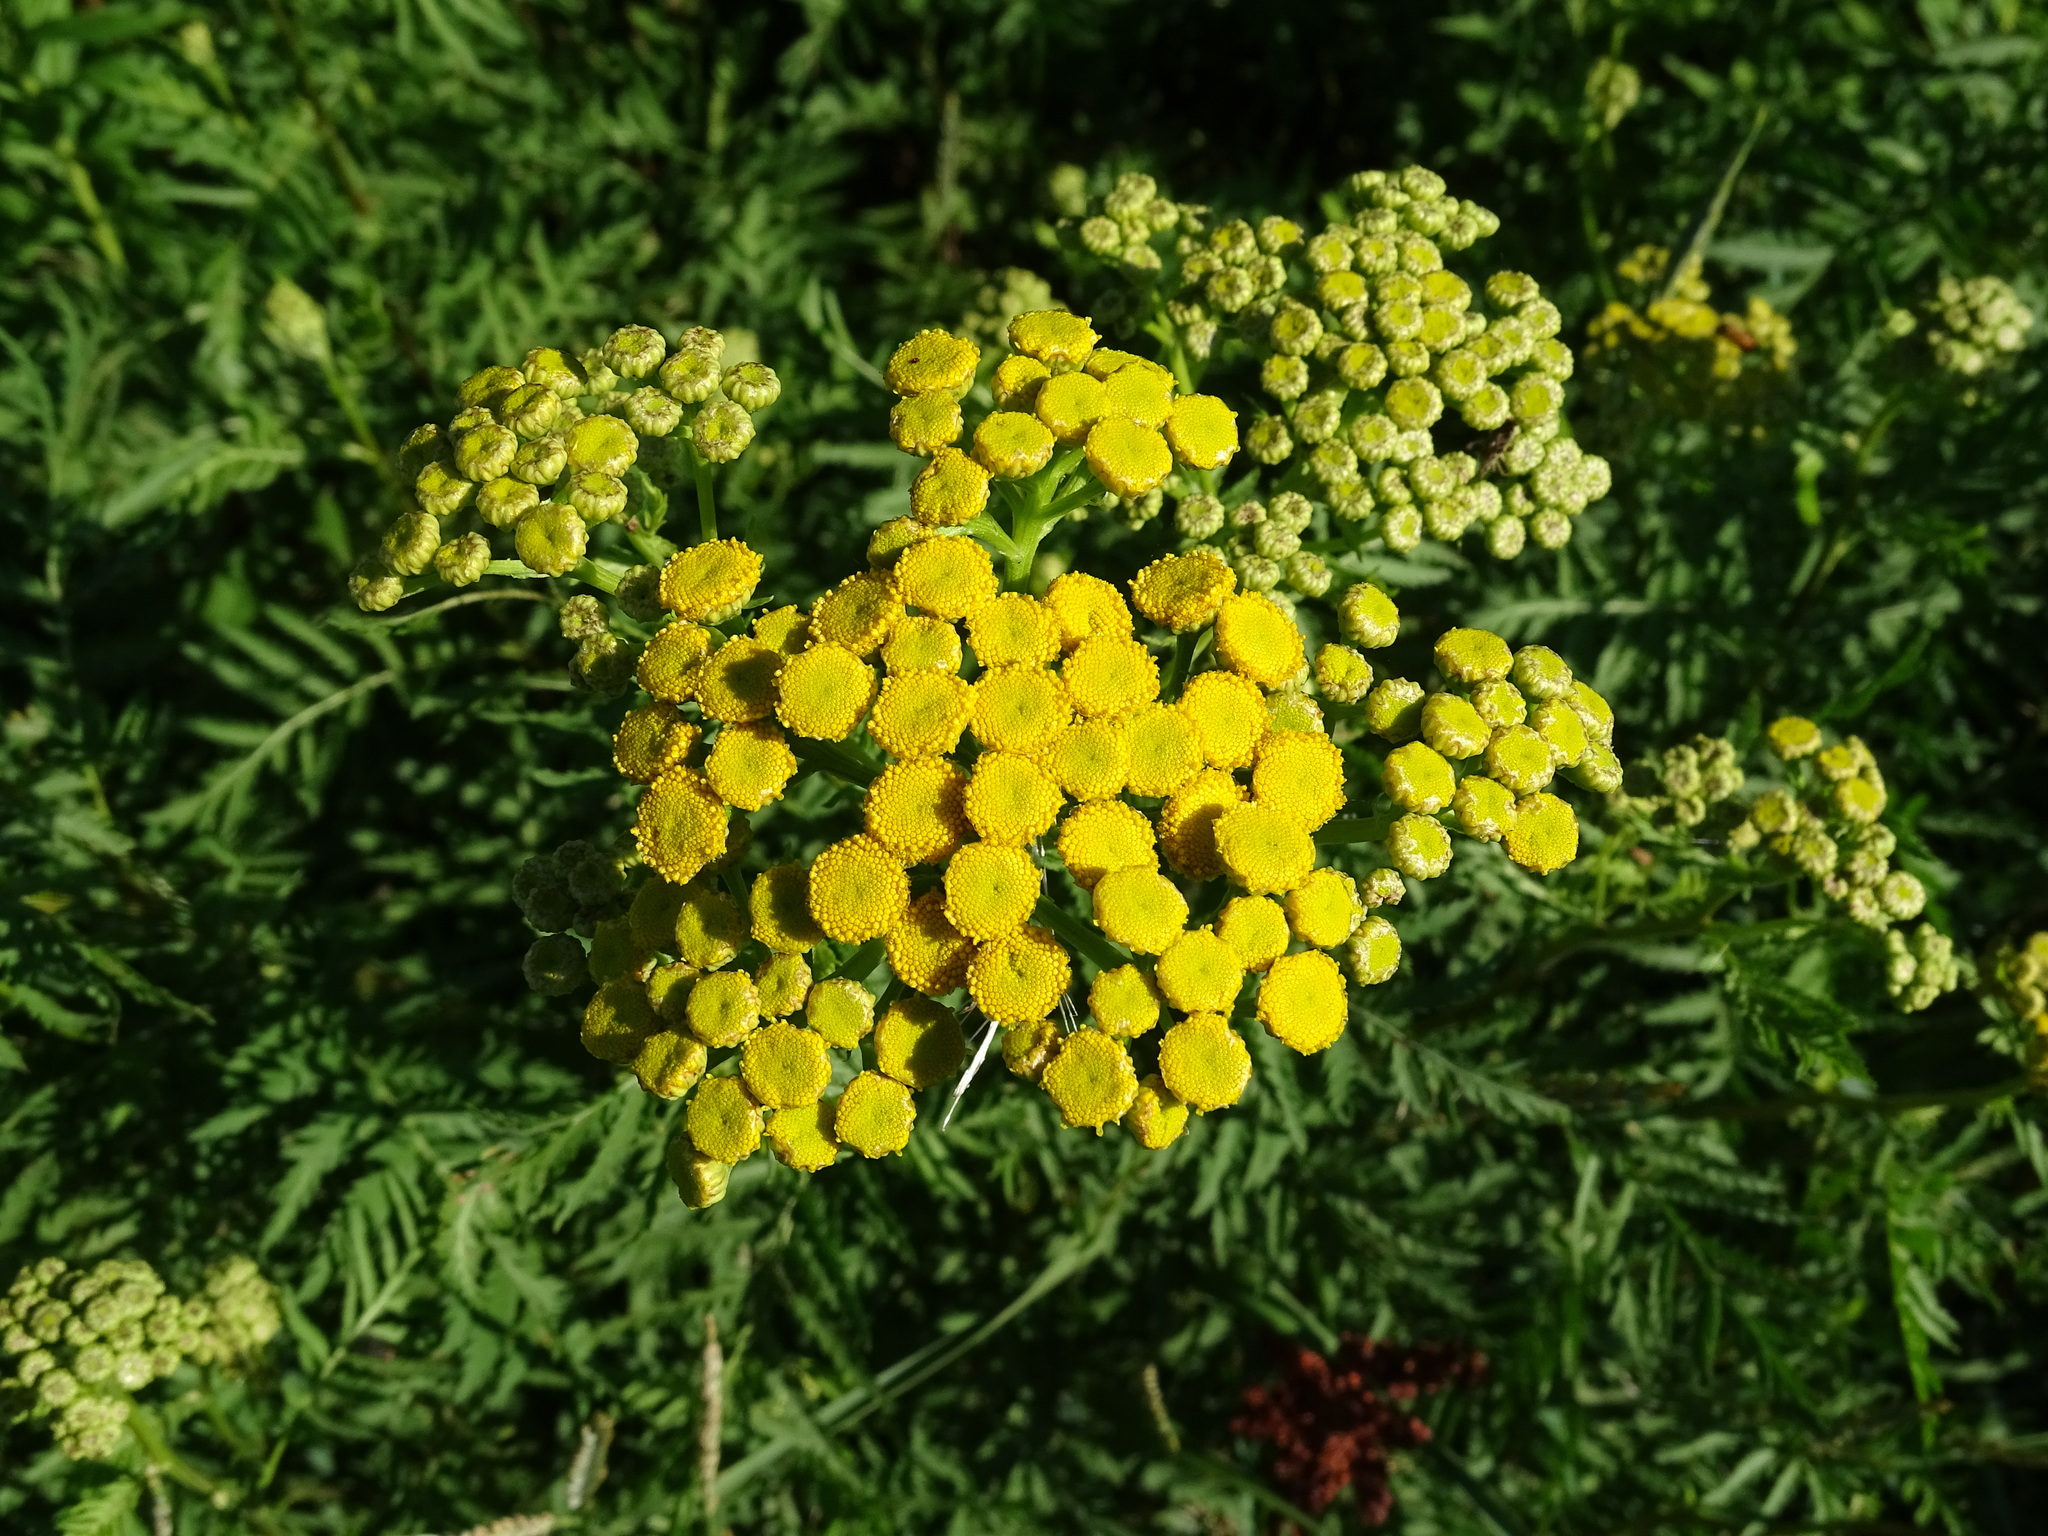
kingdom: Plantae
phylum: Tracheophyta
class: Magnoliopsida
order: Asterales
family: Asteraceae
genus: Tanacetum
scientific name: Tanacetum vulgare
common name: Common tansy
